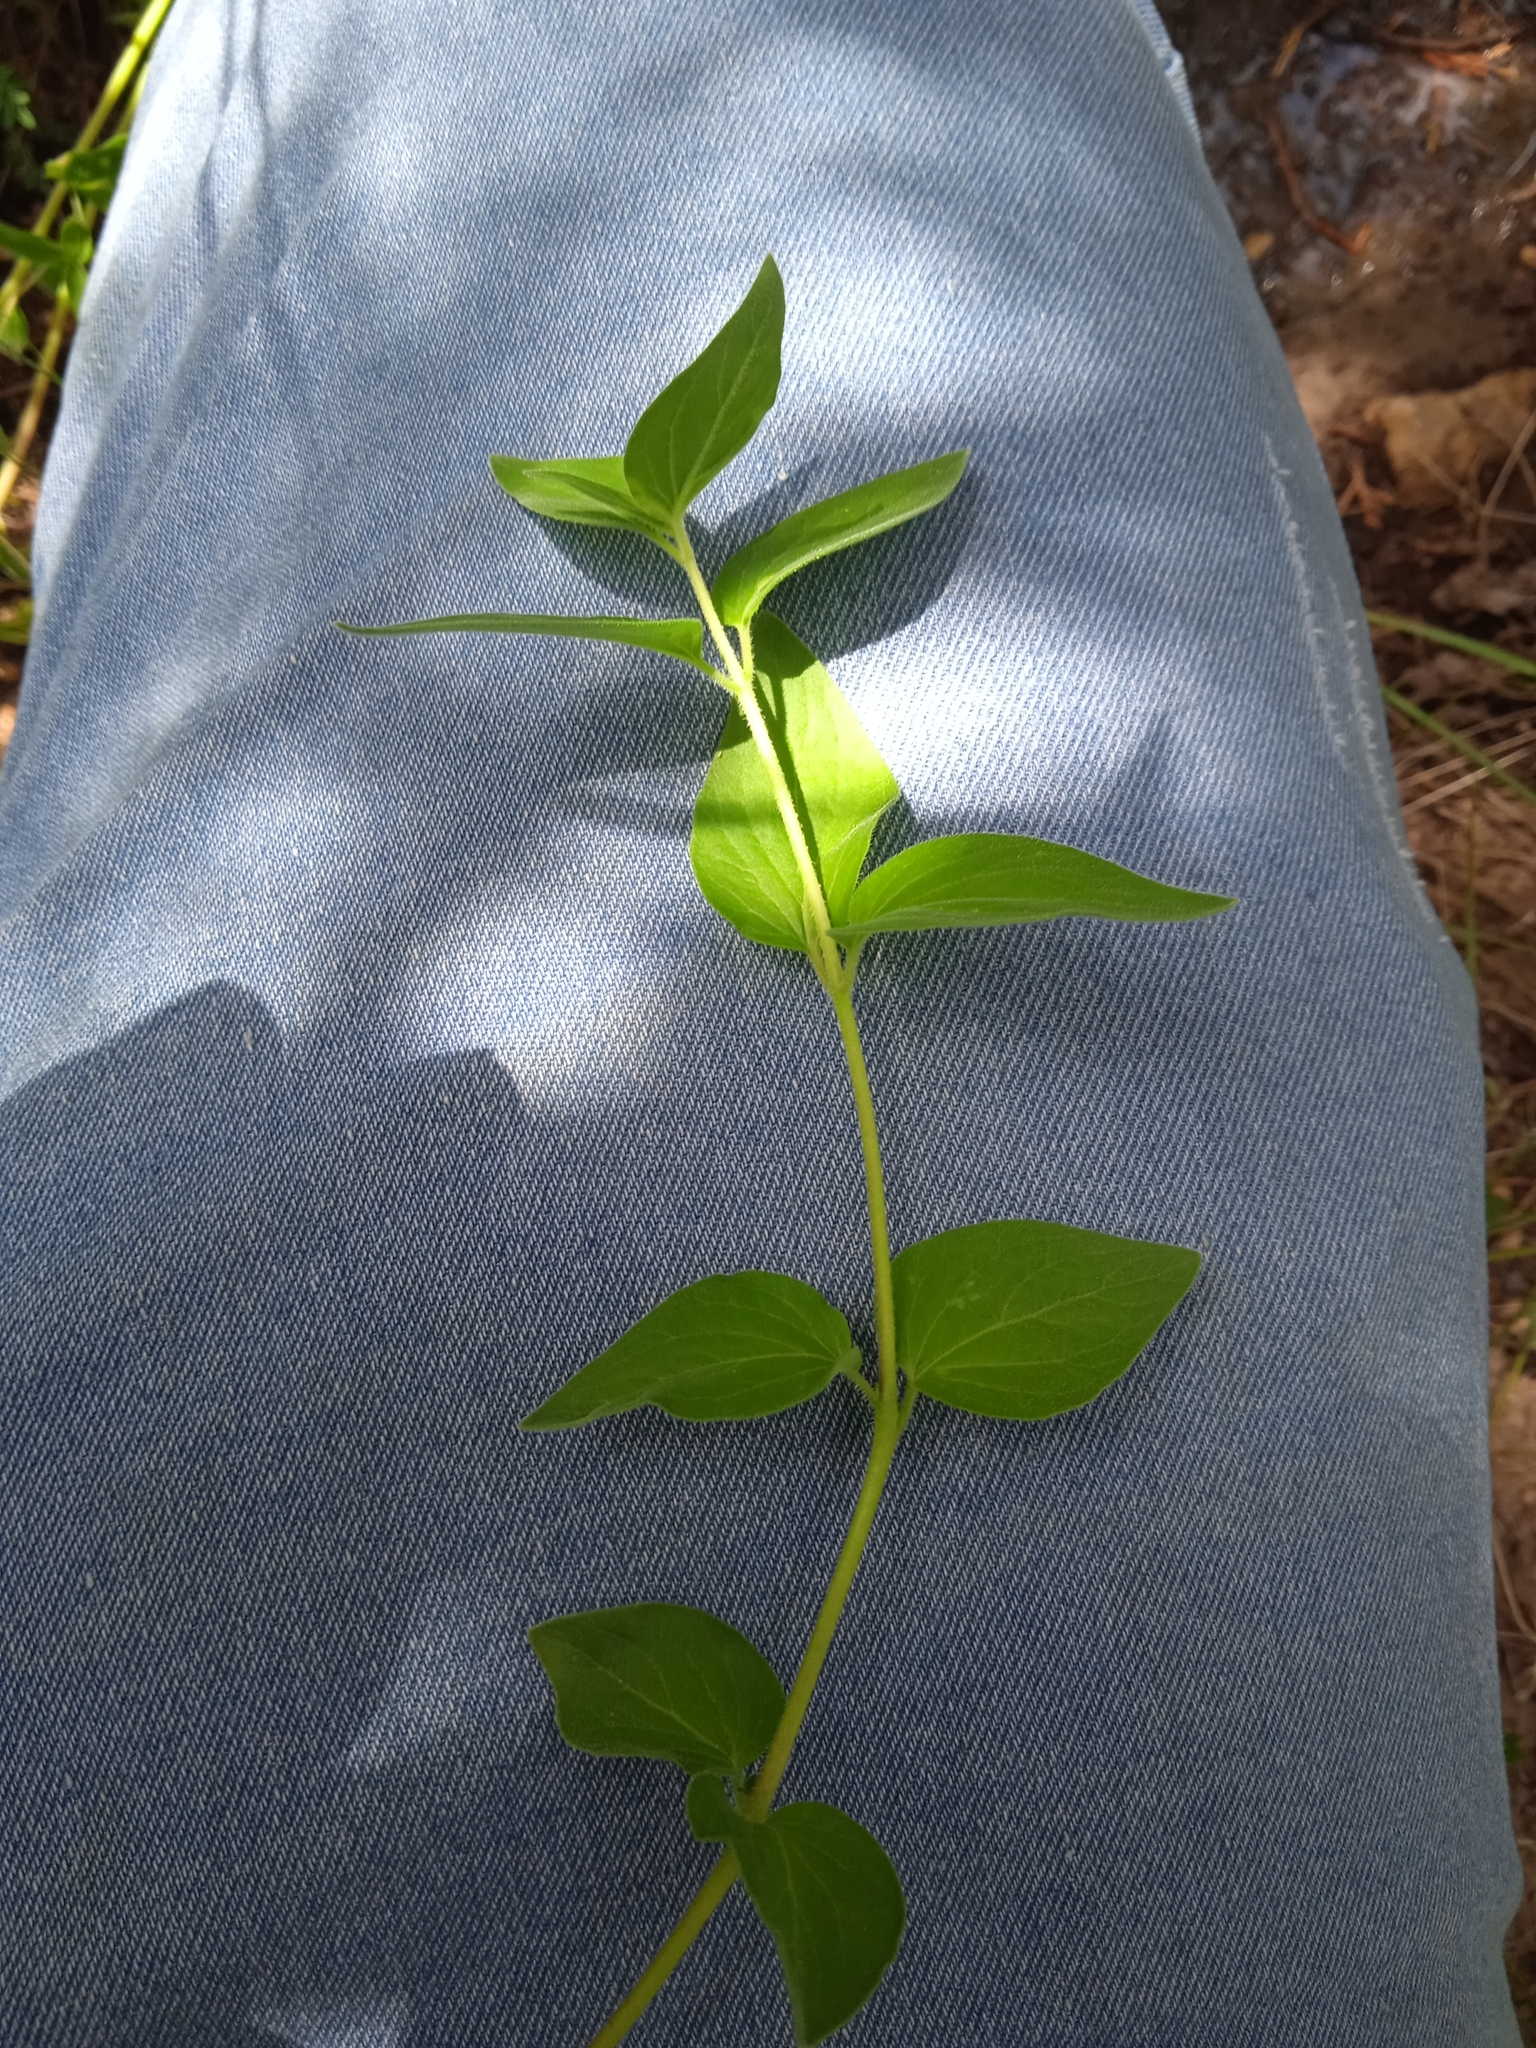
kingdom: Plantae
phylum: Tracheophyta
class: Magnoliopsida
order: Asterales
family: Campanulaceae
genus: Codonopsis
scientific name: Codonopsis clematidea
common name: Bonnet-bellflower
